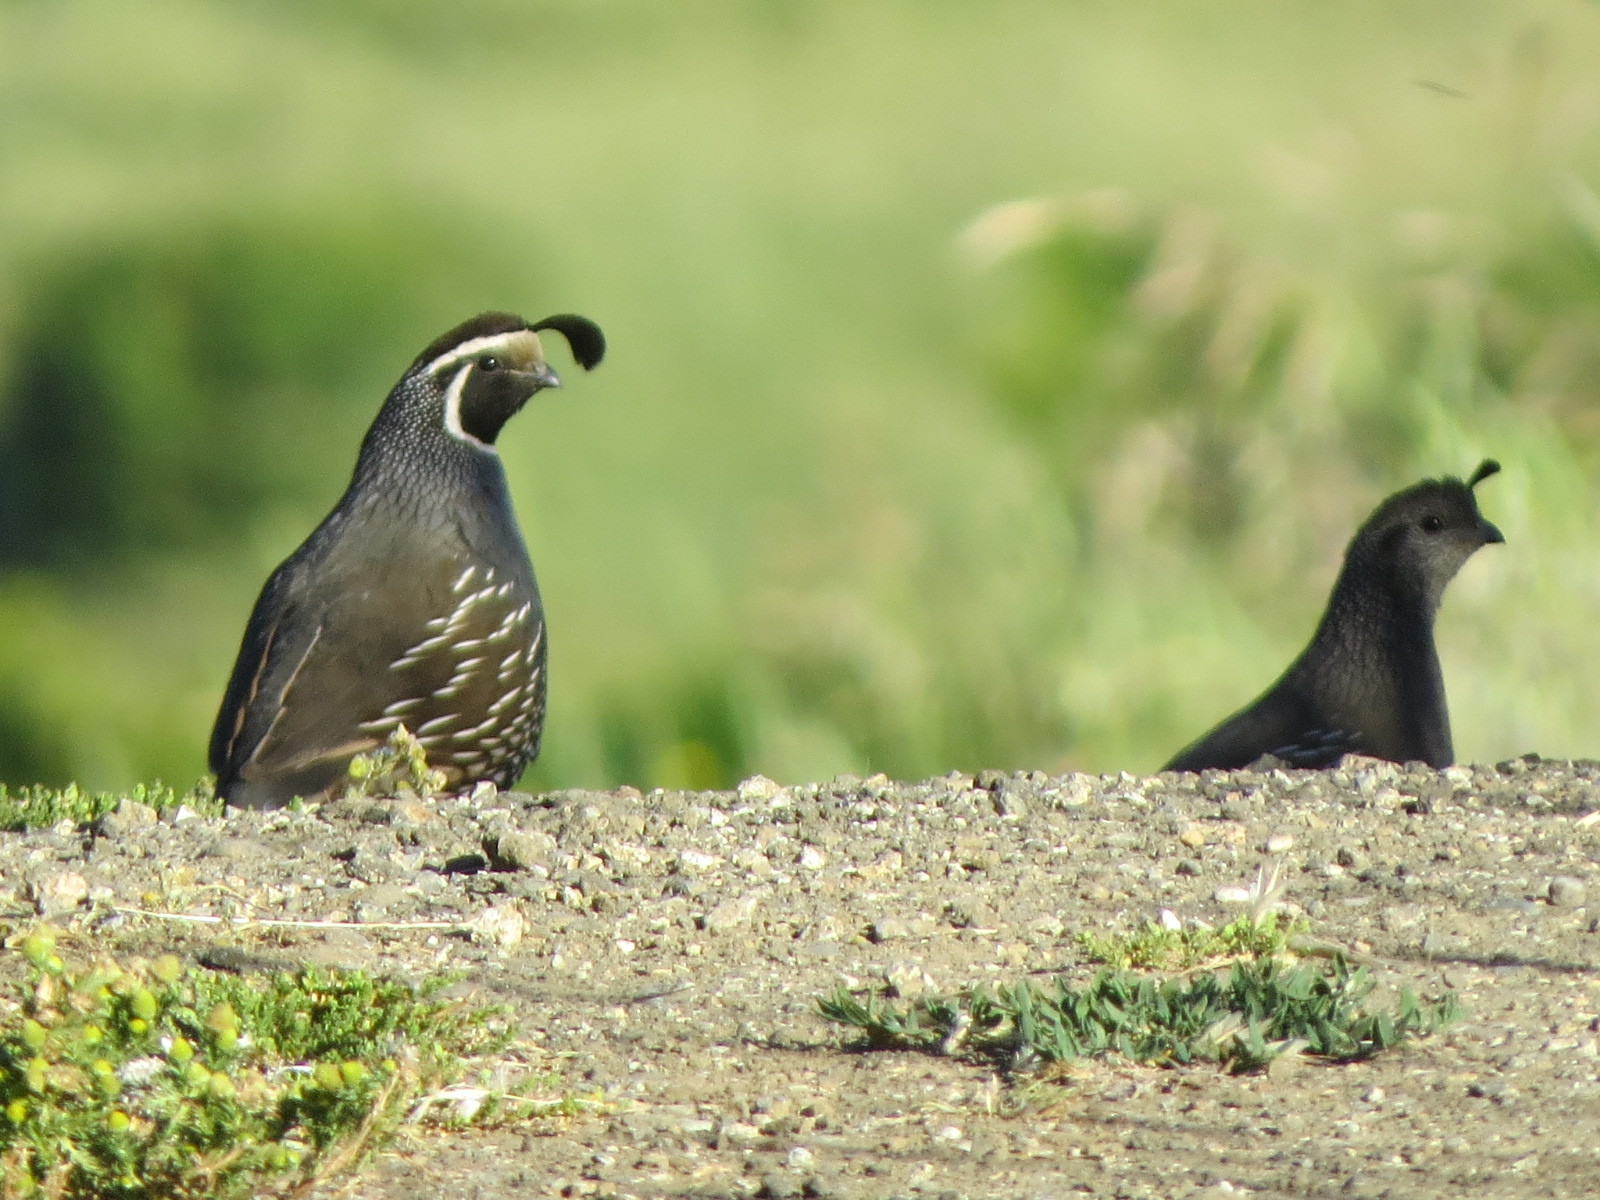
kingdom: Animalia
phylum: Chordata
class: Aves
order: Galliformes
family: Odontophoridae
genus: Callipepla
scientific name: Callipepla californica
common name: California quail
